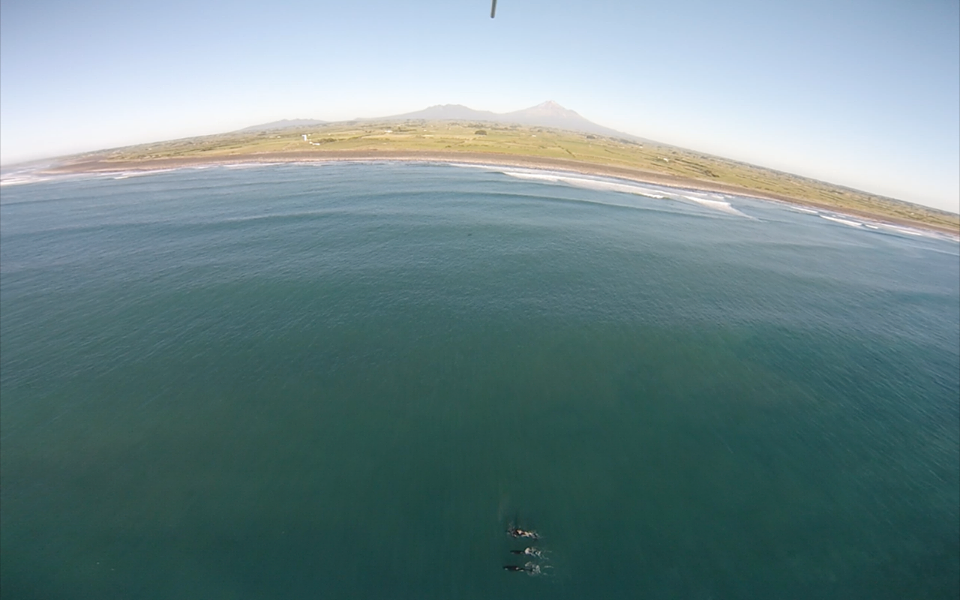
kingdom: Animalia
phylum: Chordata
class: Mammalia
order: Cetacea
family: Delphinidae
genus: Orcinus
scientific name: Orcinus orca
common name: Killer whale
